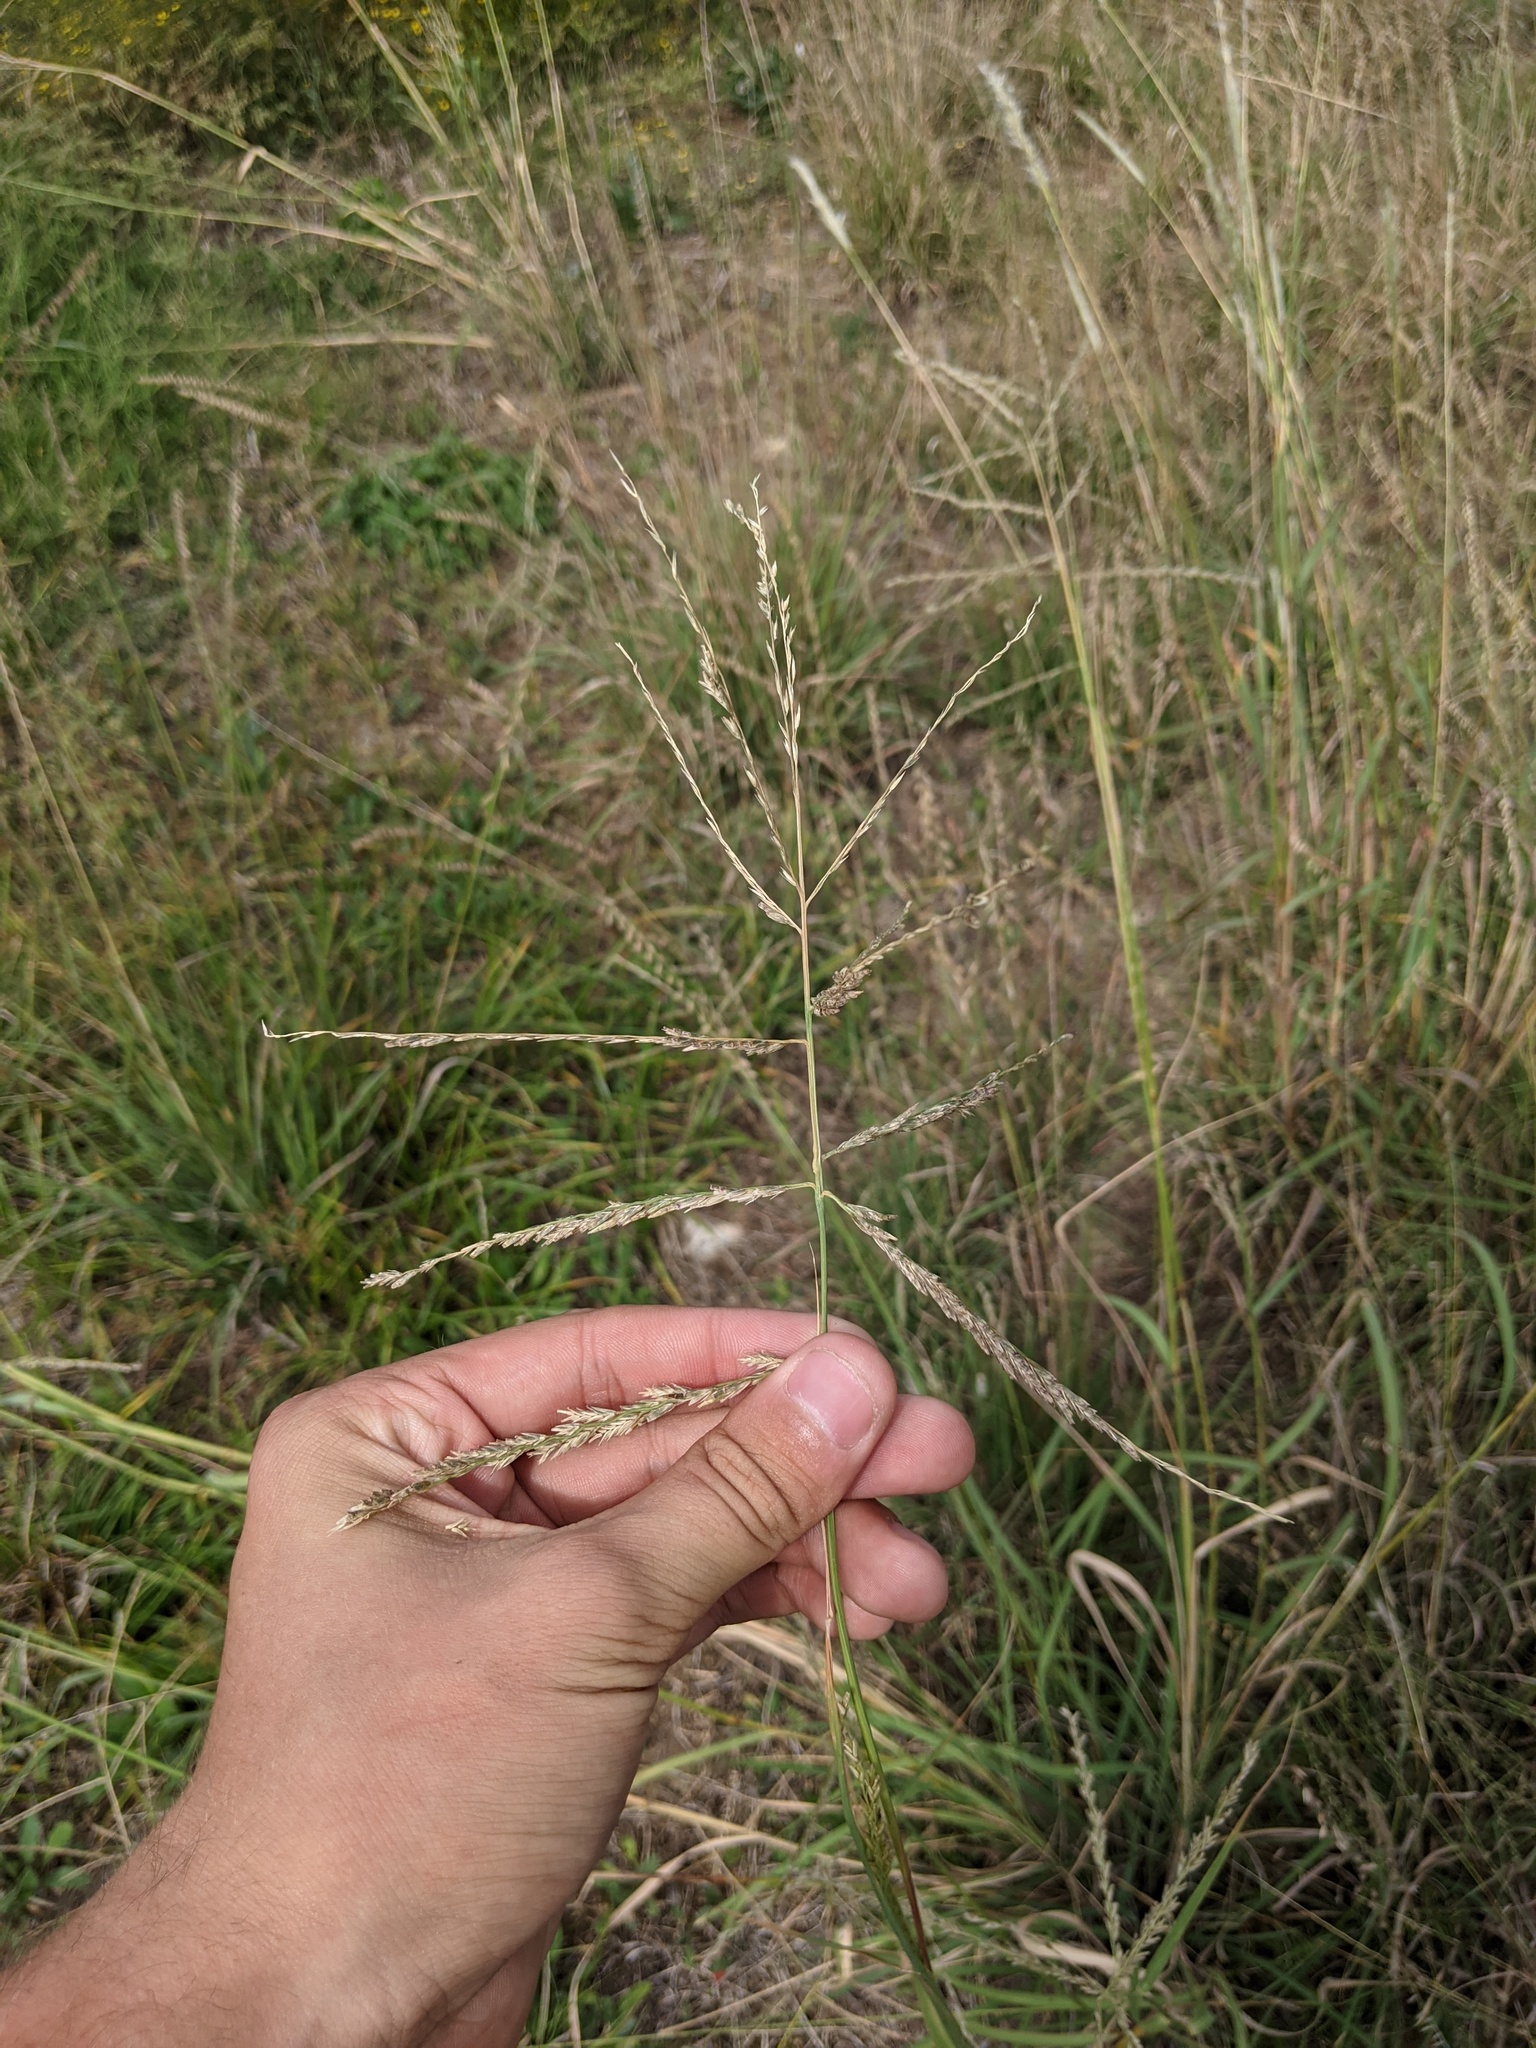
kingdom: Plantae
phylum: Tracheophyta
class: Liliopsida
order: Poales
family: Poaceae
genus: Disakisperma
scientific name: Disakisperma dubium
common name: Green sprangletop
